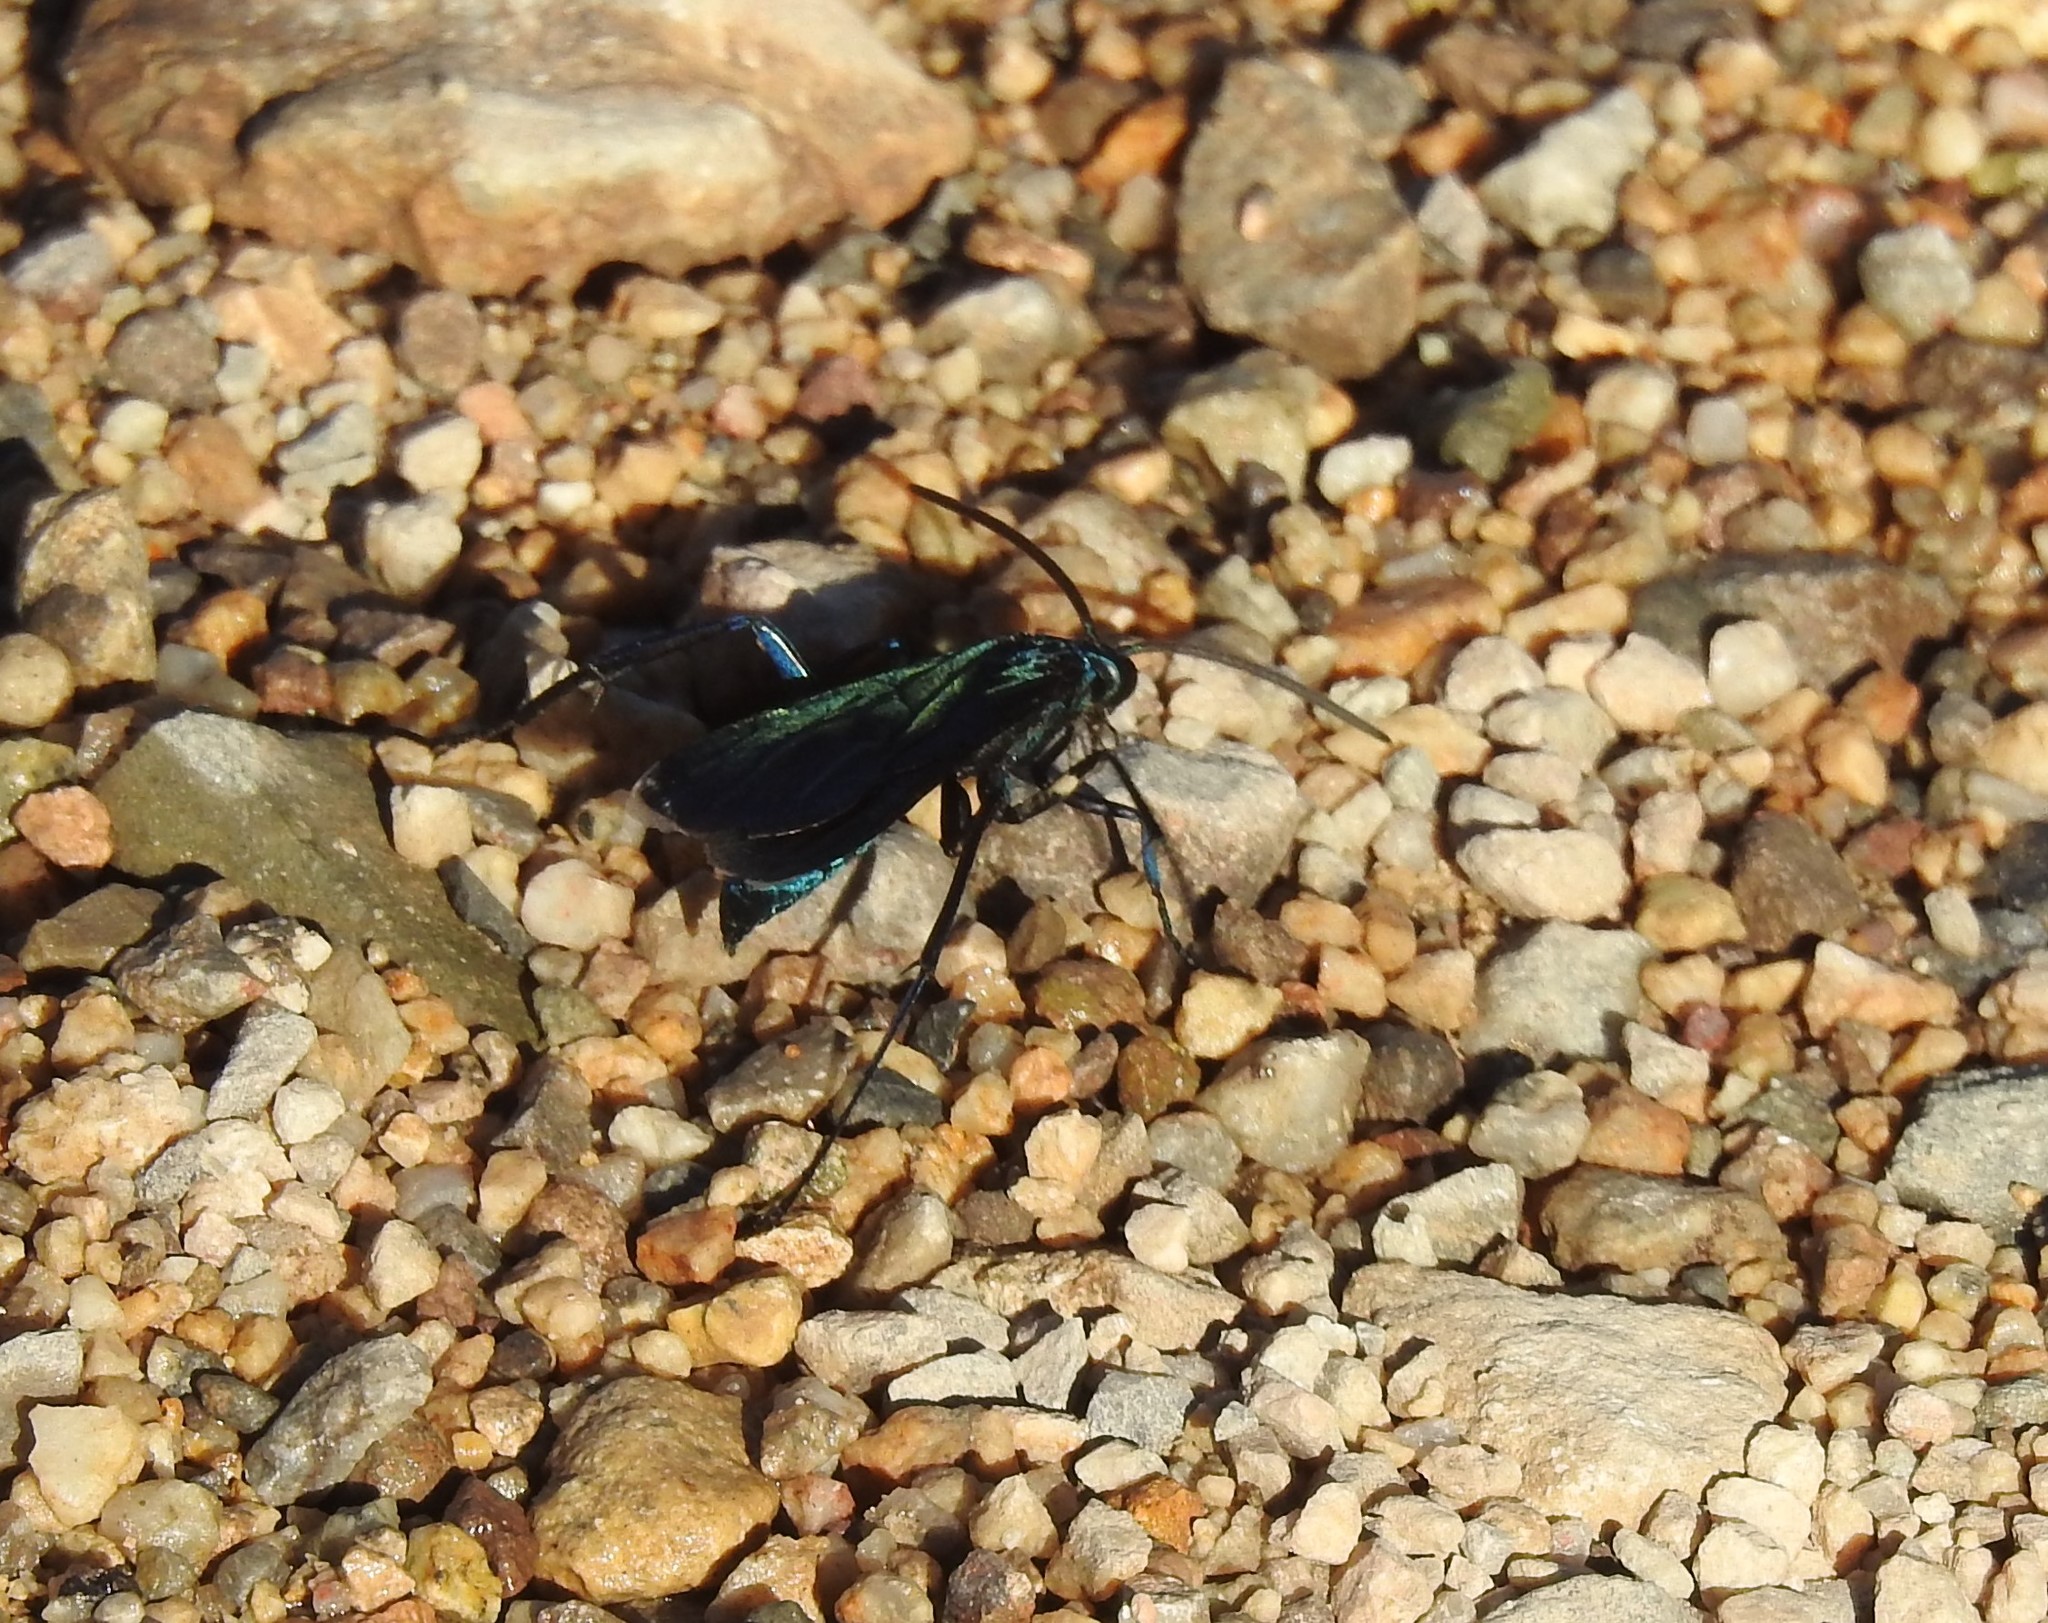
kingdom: Animalia
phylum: Arthropoda
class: Insecta
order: Hymenoptera
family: Pompilidae
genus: Pepsis
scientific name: Pepsis mexicana
